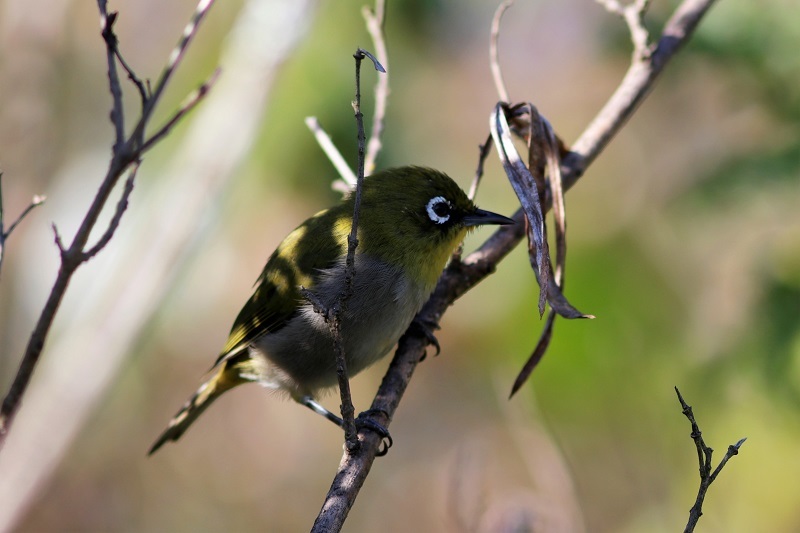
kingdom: Animalia
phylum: Chordata
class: Aves
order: Passeriformes
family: Zosteropidae
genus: Zosterops
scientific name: Zosterops virens
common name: Cape white-eye
